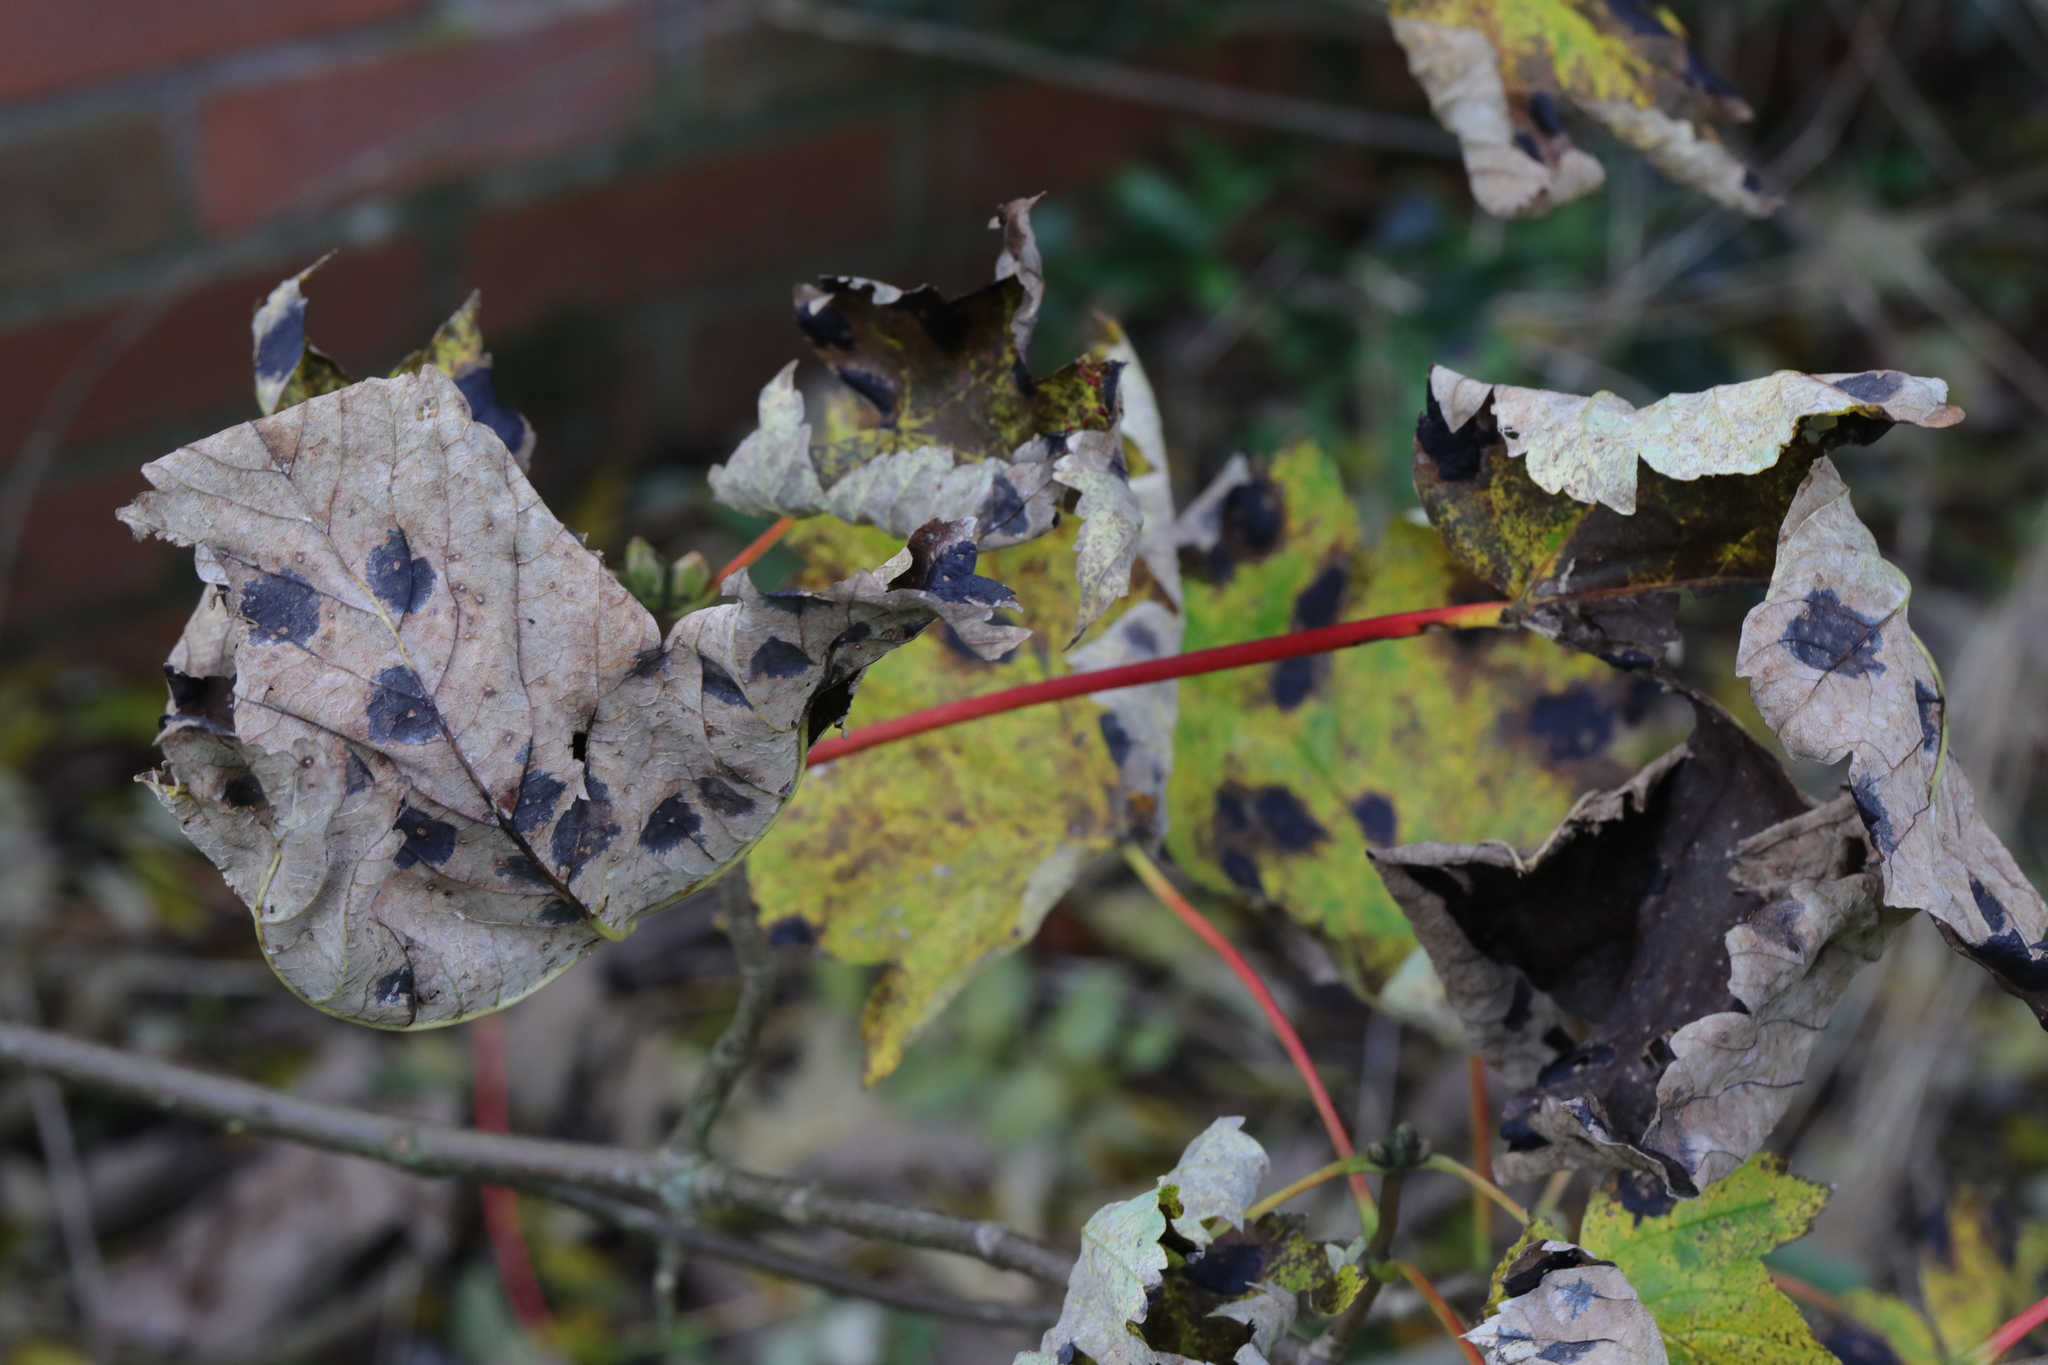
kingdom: Plantae
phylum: Tracheophyta
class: Magnoliopsida
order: Sapindales
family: Sapindaceae
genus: Acer
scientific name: Acer pseudoplatanus
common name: Sycamore
